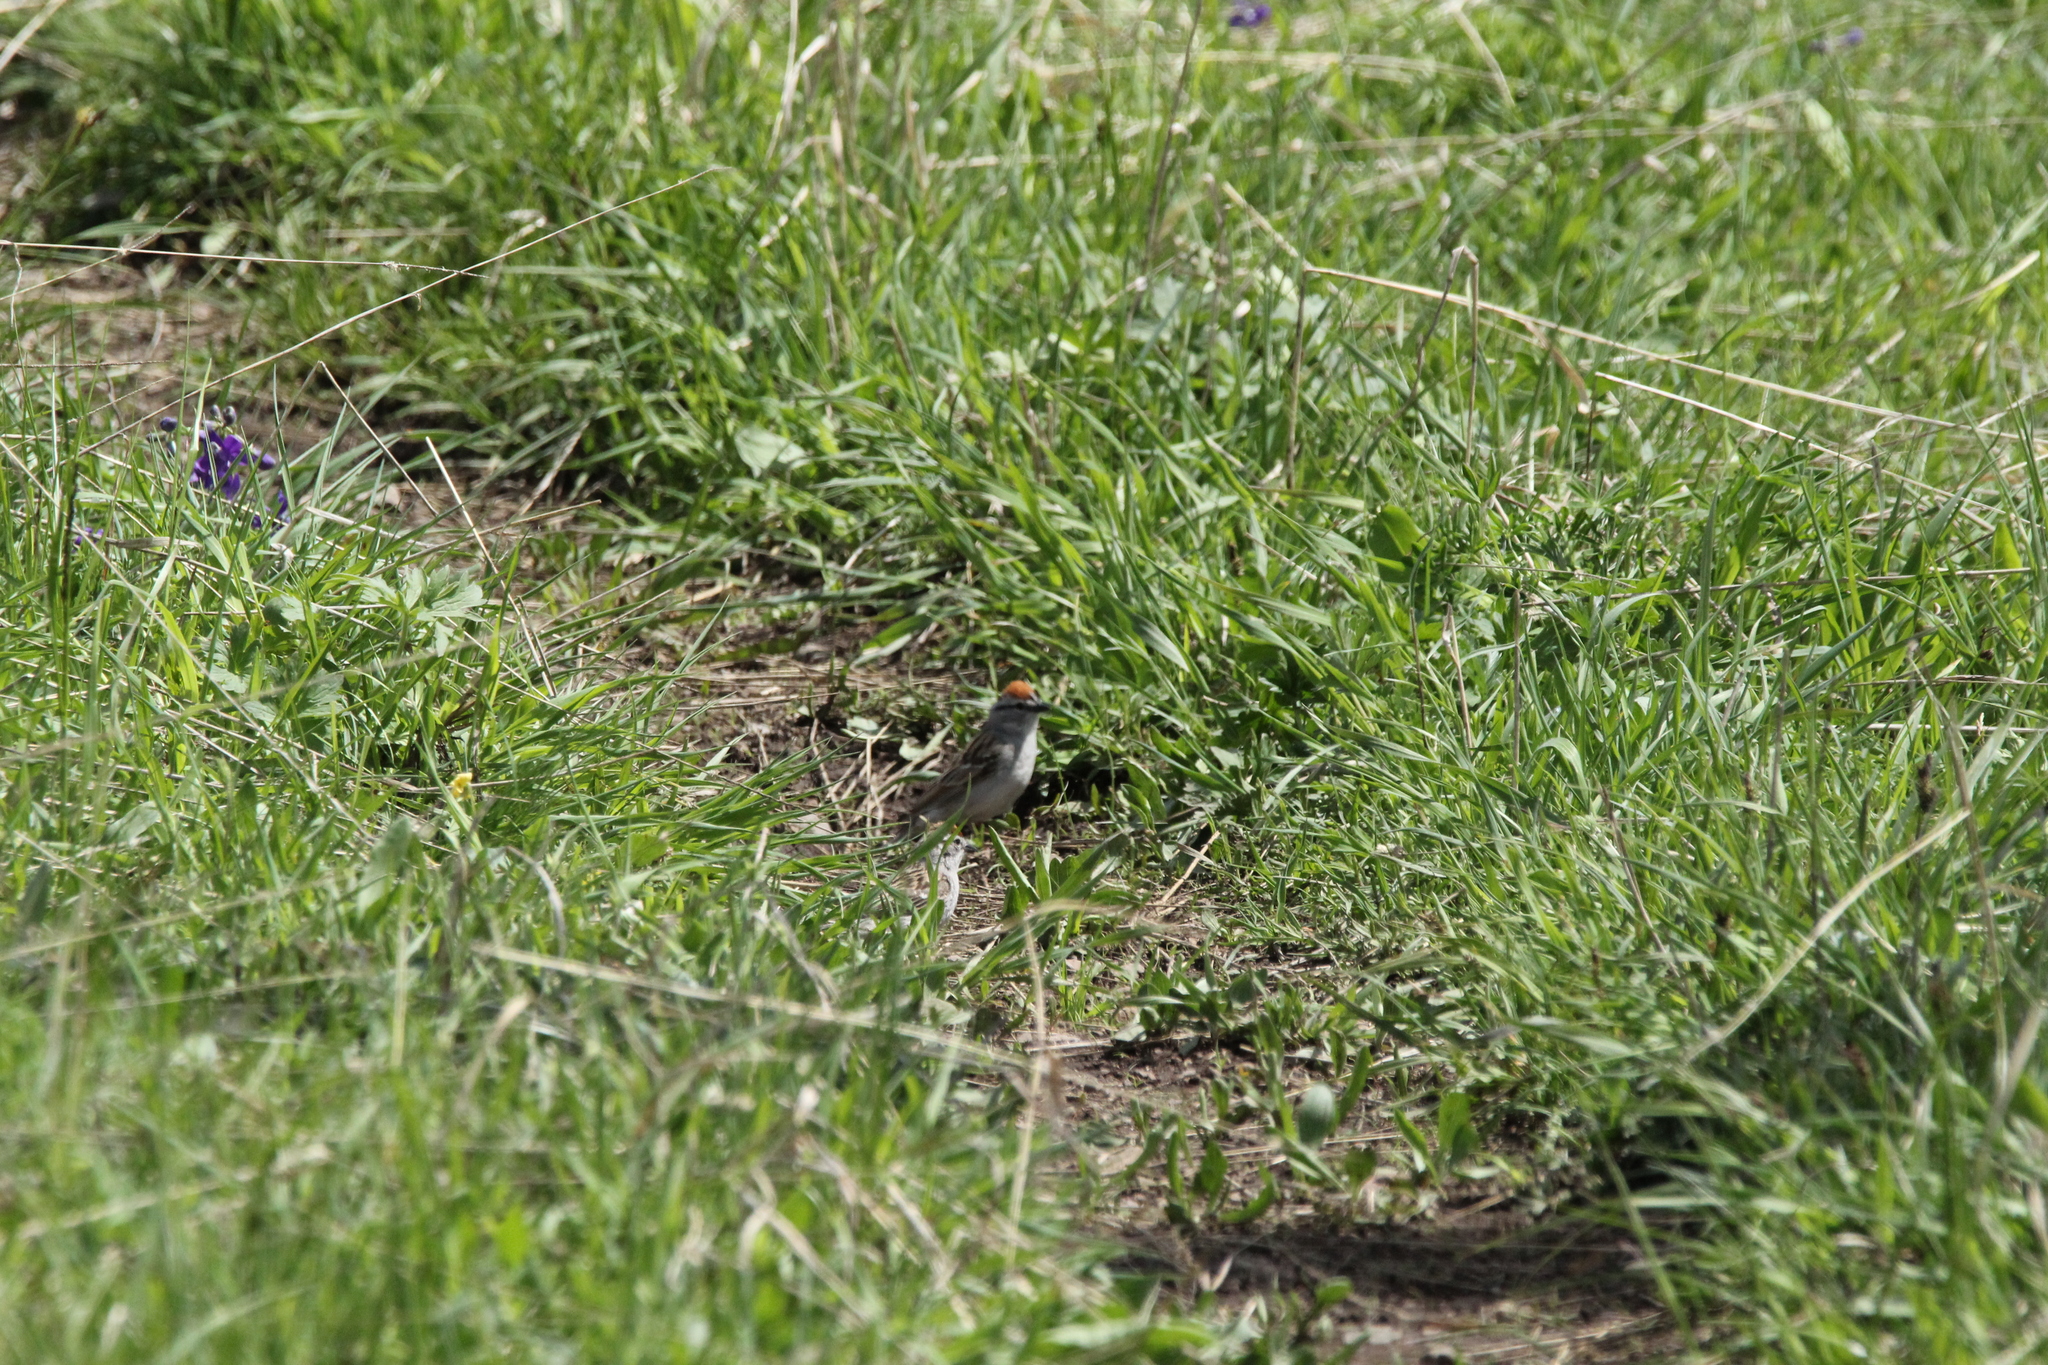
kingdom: Animalia
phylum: Chordata
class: Aves
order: Passeriformes
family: Passerellidae
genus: Spizella
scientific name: Spizella passerina
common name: Chipping sparrow
